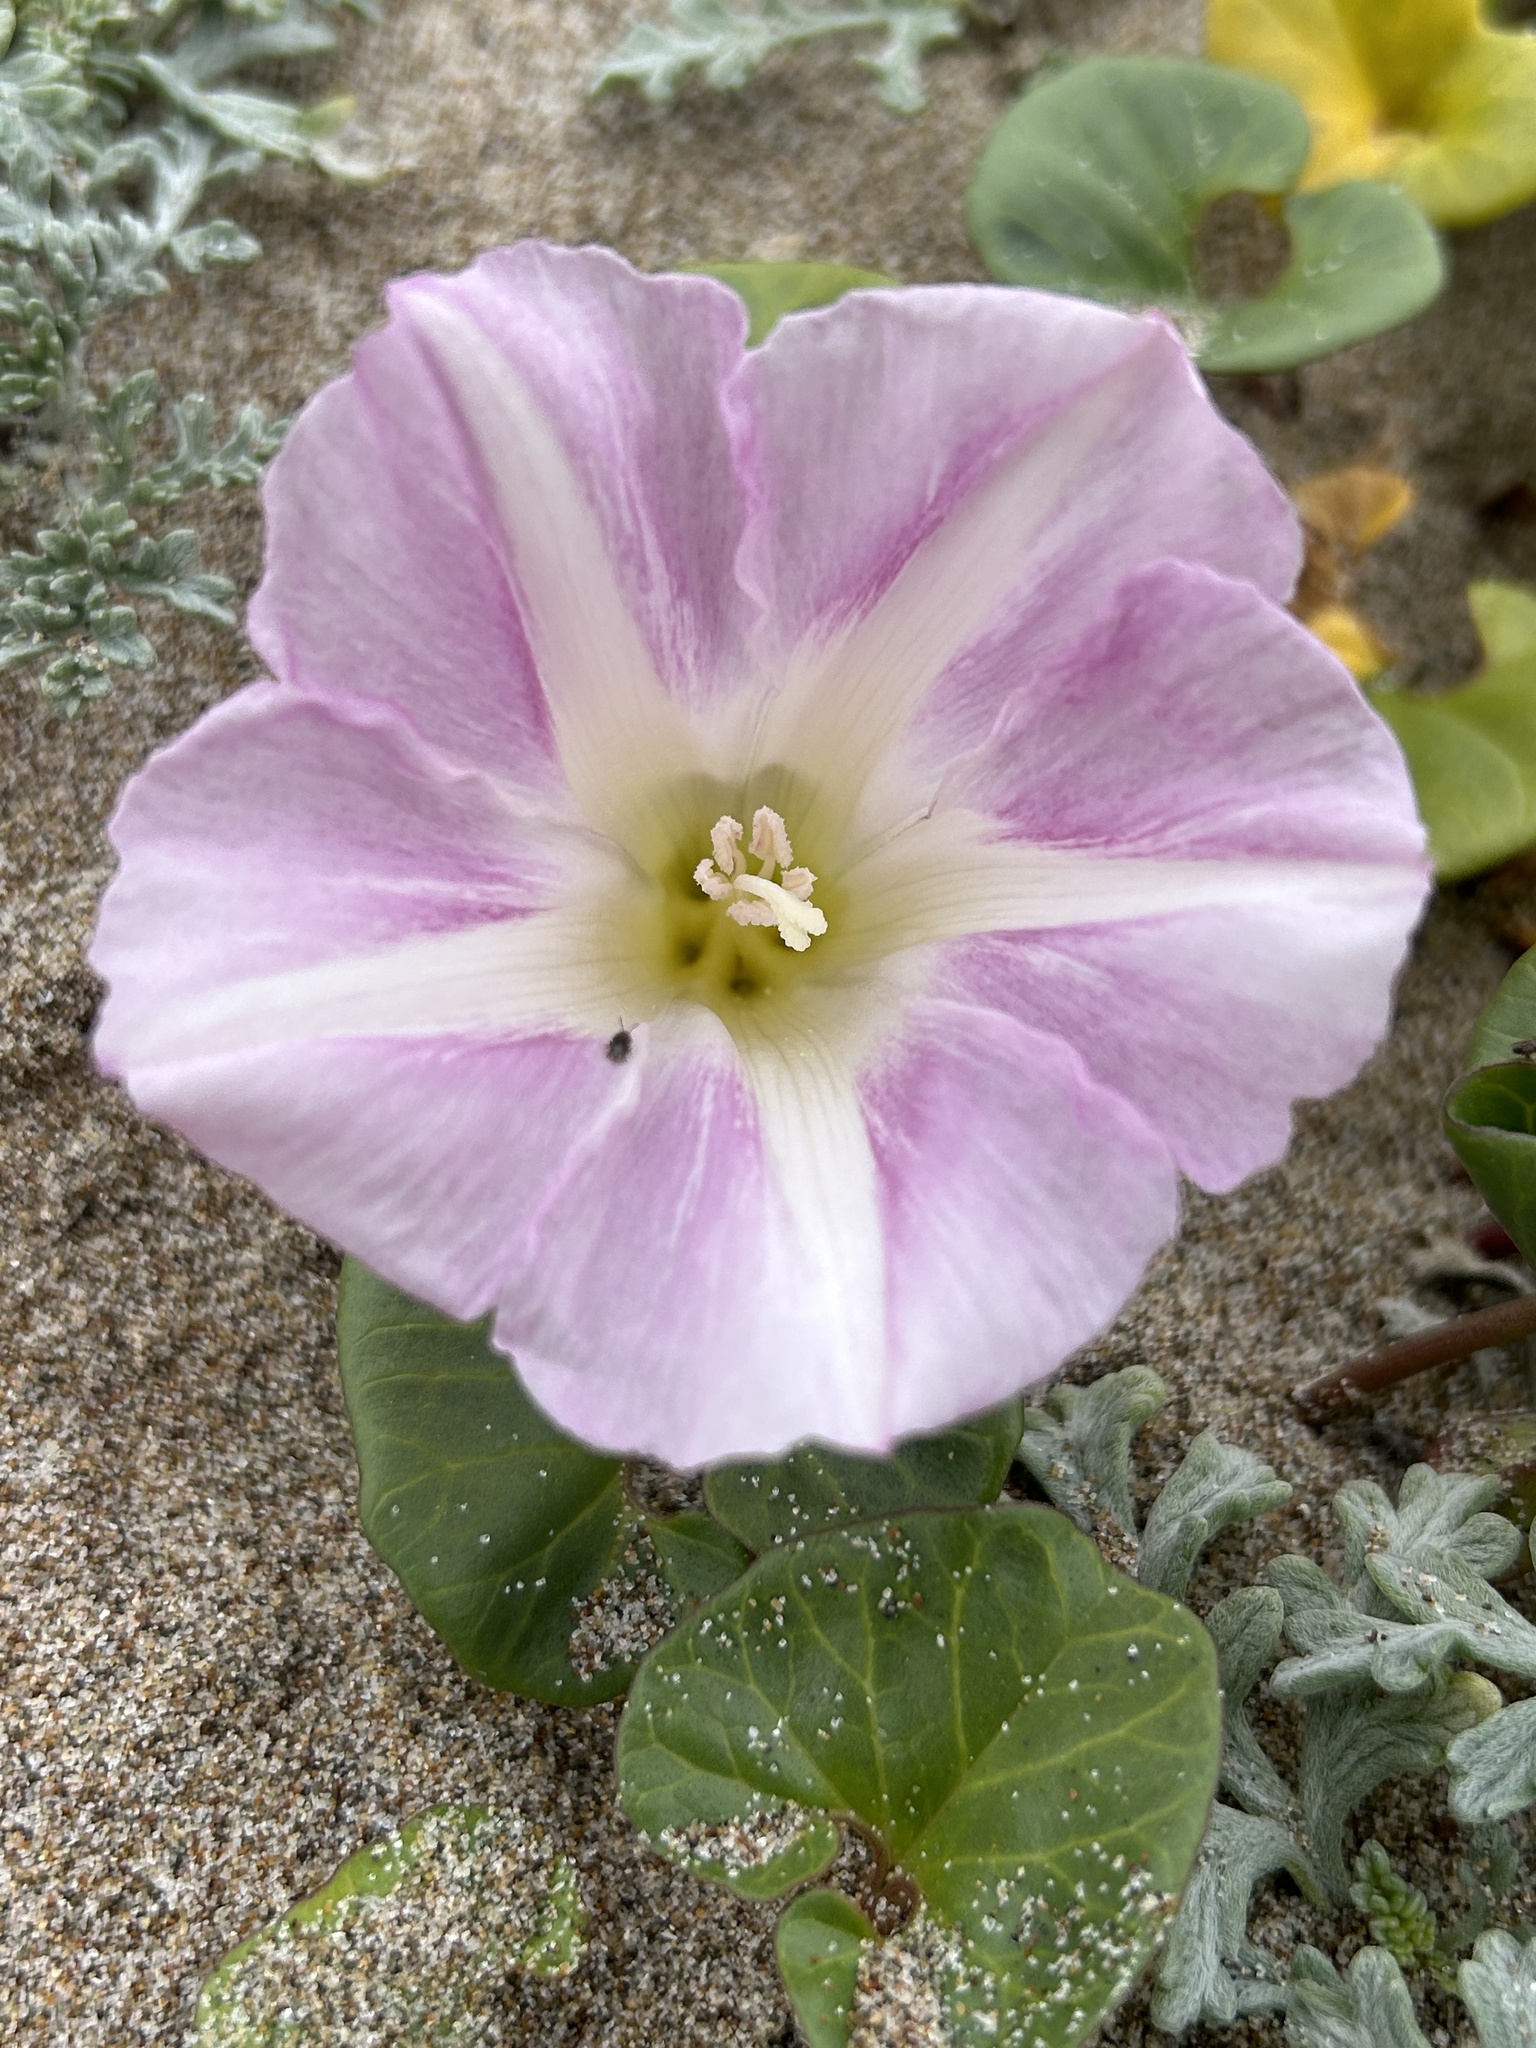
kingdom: Plantae
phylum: Tracheophyta
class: Magnoliopsida
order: Solanales
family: Convolvulaceae
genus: Calystegia
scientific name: Calystegia soldanella
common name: Sea bindweed
